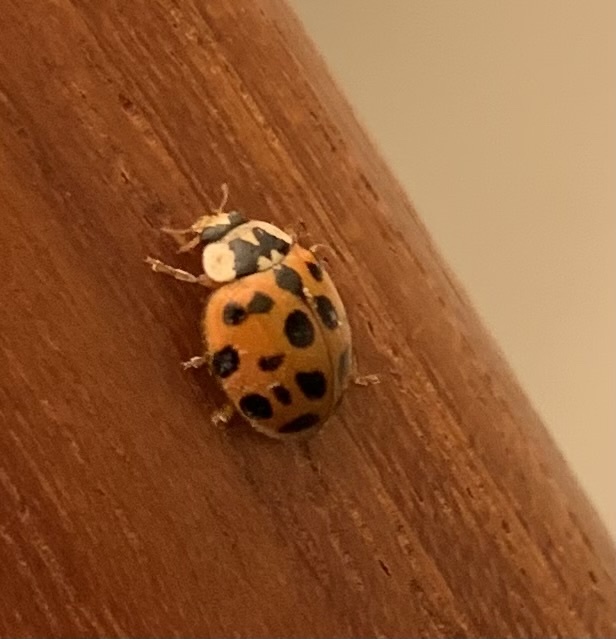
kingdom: Animalia
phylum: Arthropoda
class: Insecta
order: Coleoptera
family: Coccinellidae
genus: Harmonia
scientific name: Harmonia axyridis
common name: Harlequin ladybird
